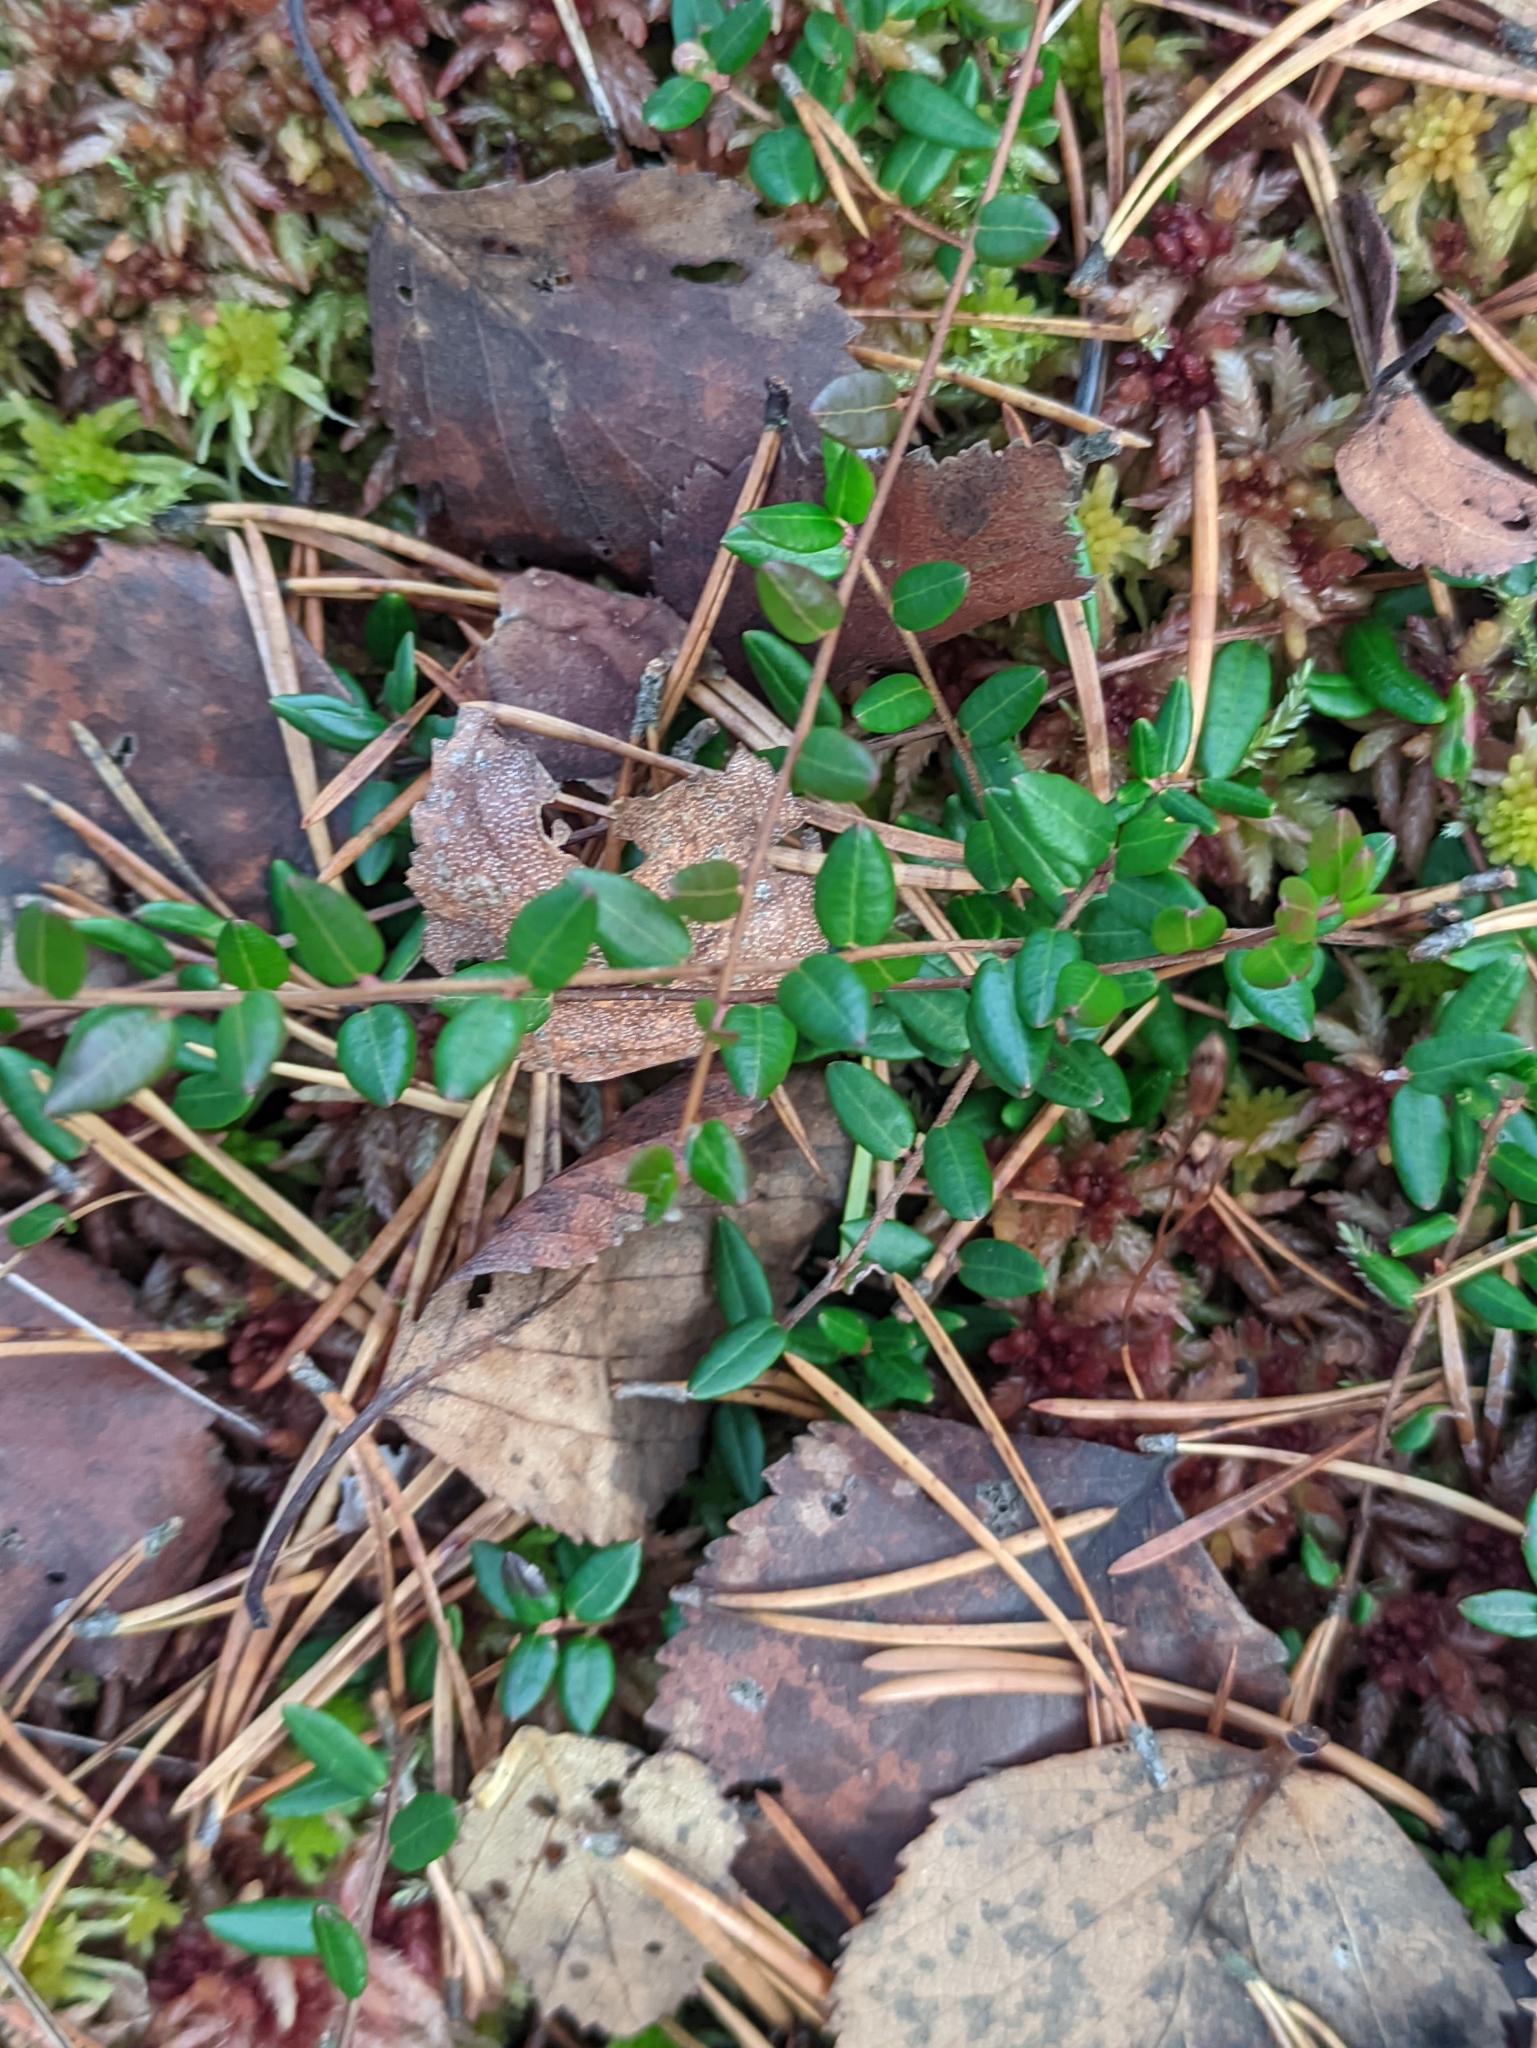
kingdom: Plantae
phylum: Tracheophyta
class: Magnoliopsida
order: Ericales
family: Ericaceae
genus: Vaccinium
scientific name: Vaccinium oxycoccos
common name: Cranberry
